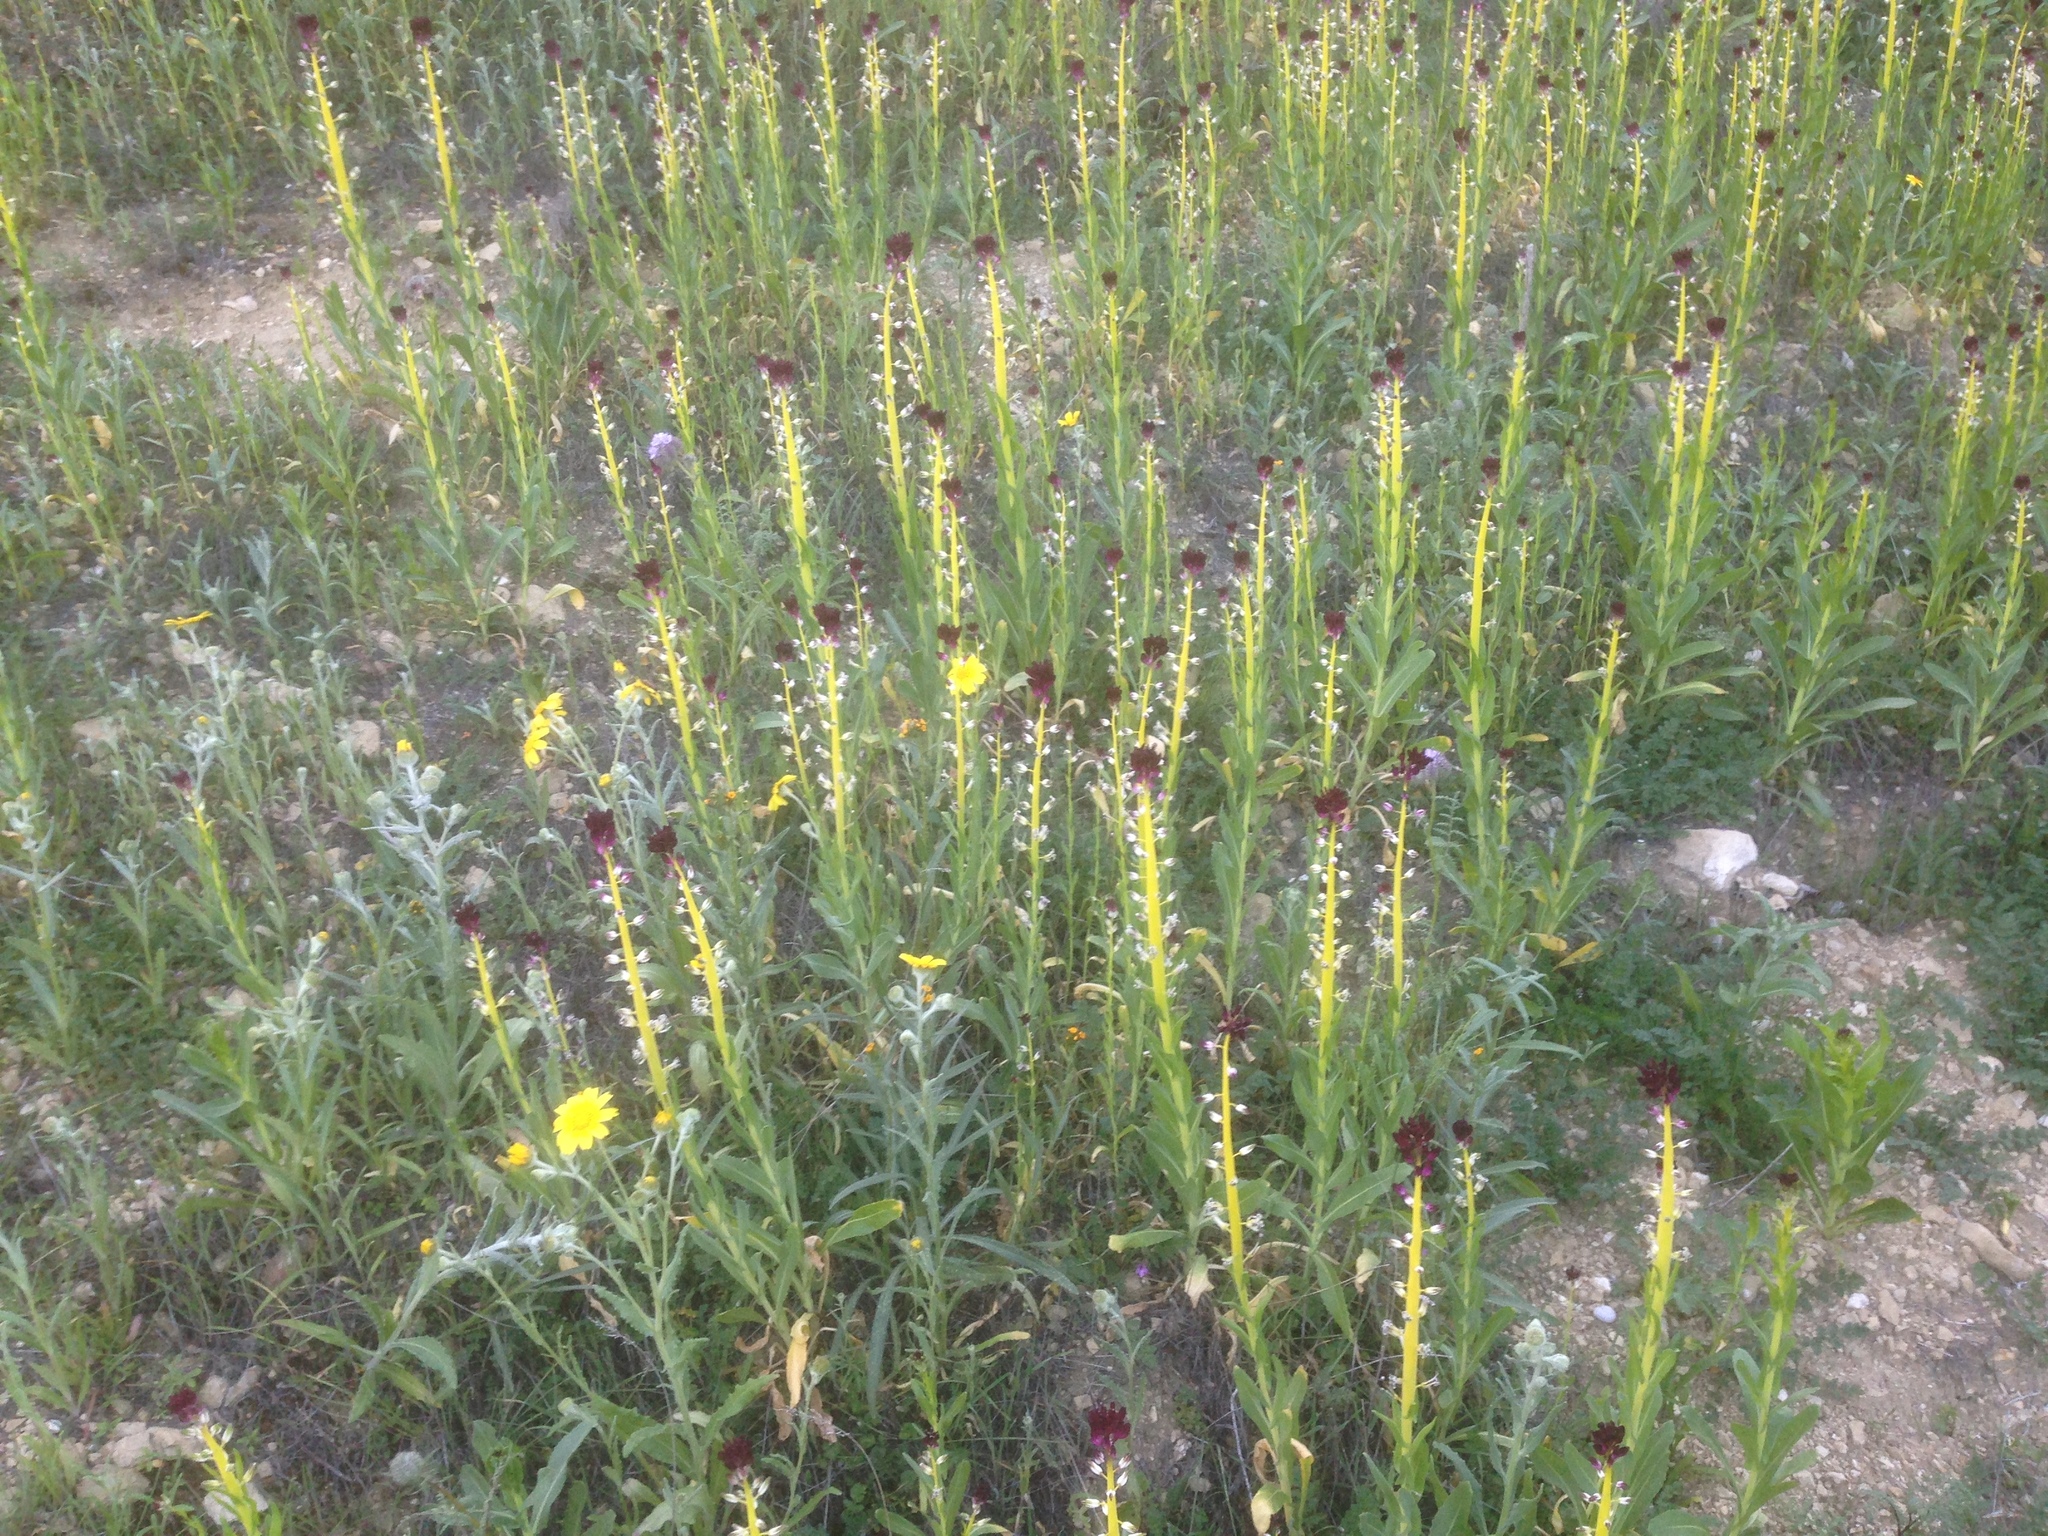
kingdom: Plantae
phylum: Tracheophyta
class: Magnoliopsida
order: Brassicales
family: Brassicaceae
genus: Streptanthus
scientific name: Streptanthus inflatus
